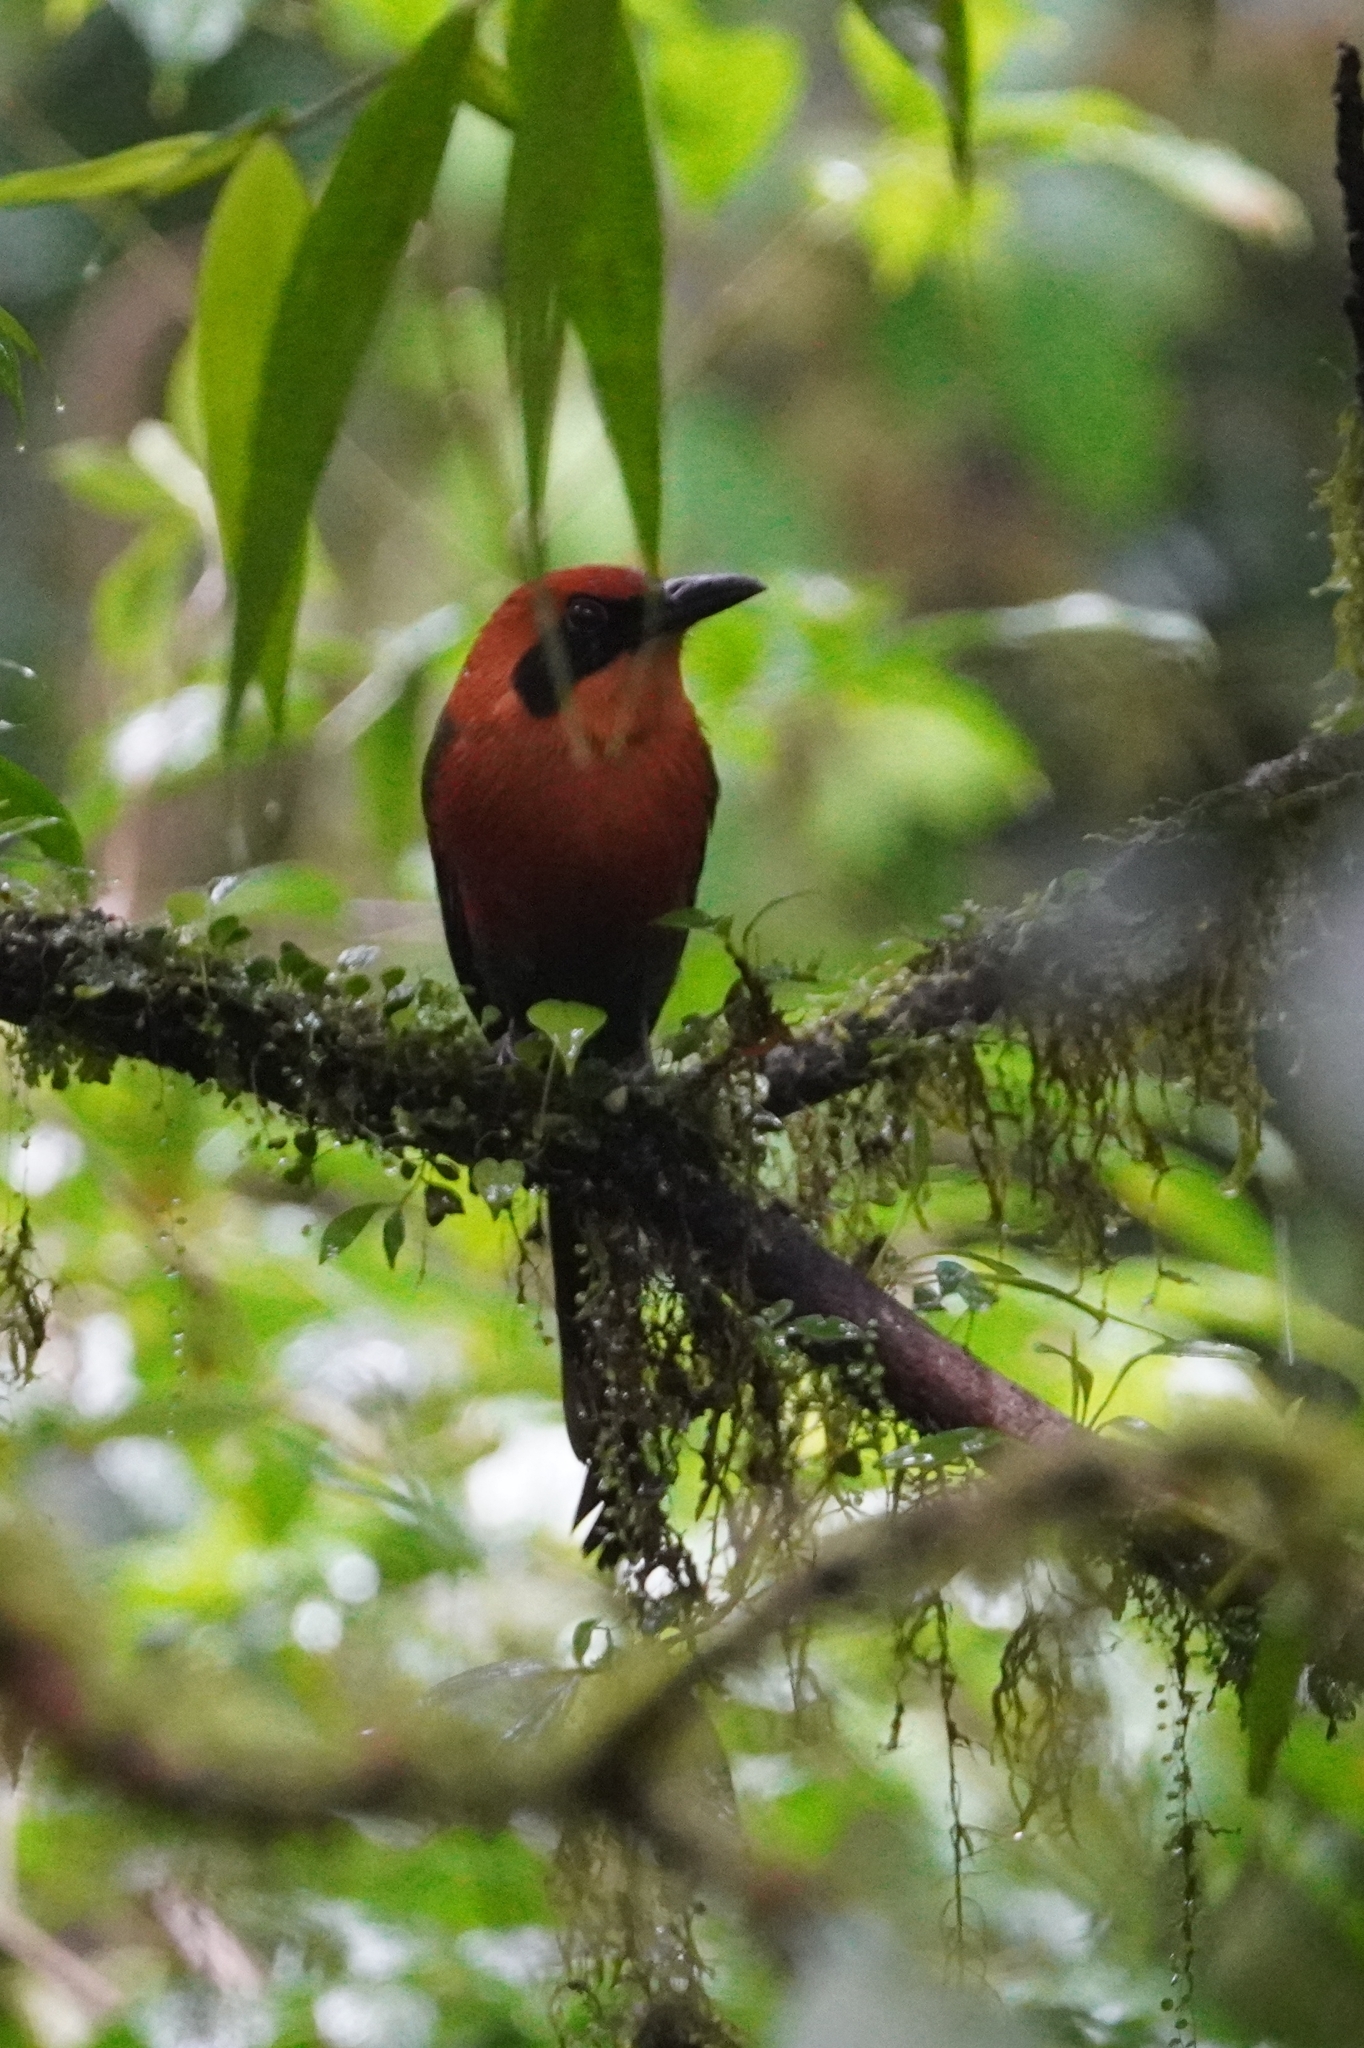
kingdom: Animalia
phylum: Chordata
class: Aves
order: Coraciiformes
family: Momotidae
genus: Baryphthengus
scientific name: Baryphthengus martii
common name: Rufous motmot
